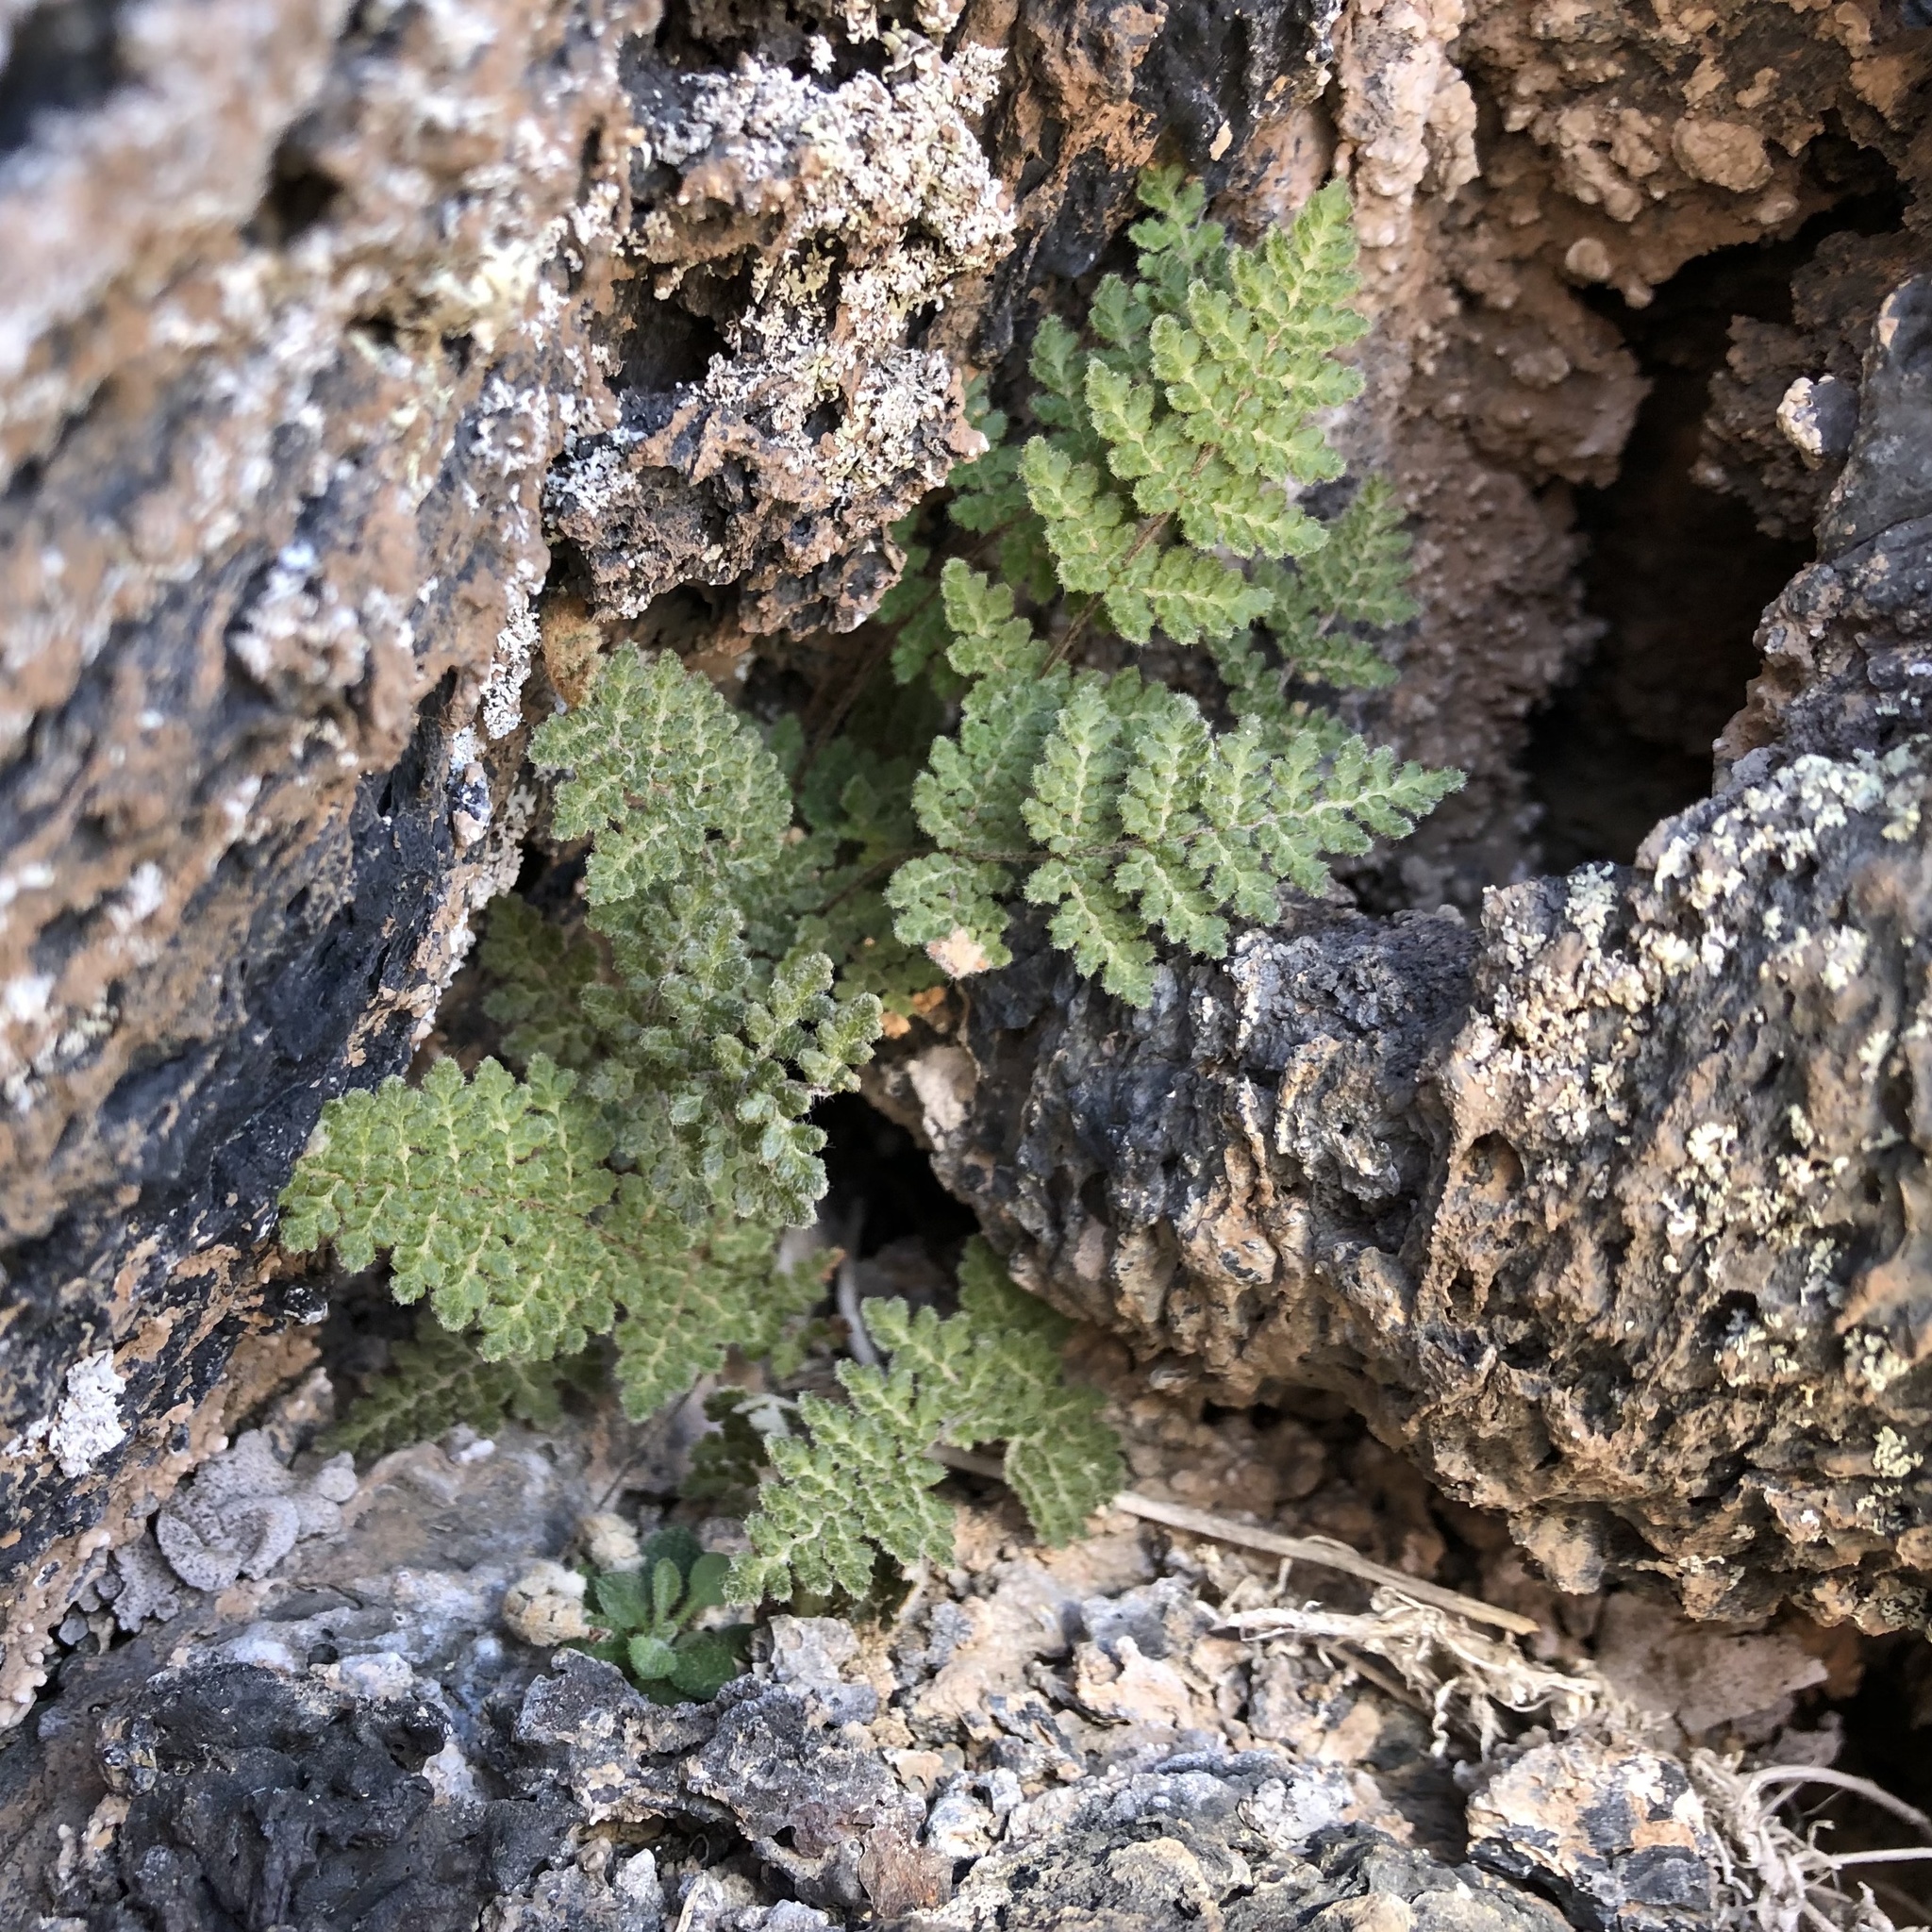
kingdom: Plantae
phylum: Tracheophyta
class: Polypodiopsida
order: Polypodiales
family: Pteridaceae
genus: Myriopteris
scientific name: Myriopteris gracilis
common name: Fee's lip fern
